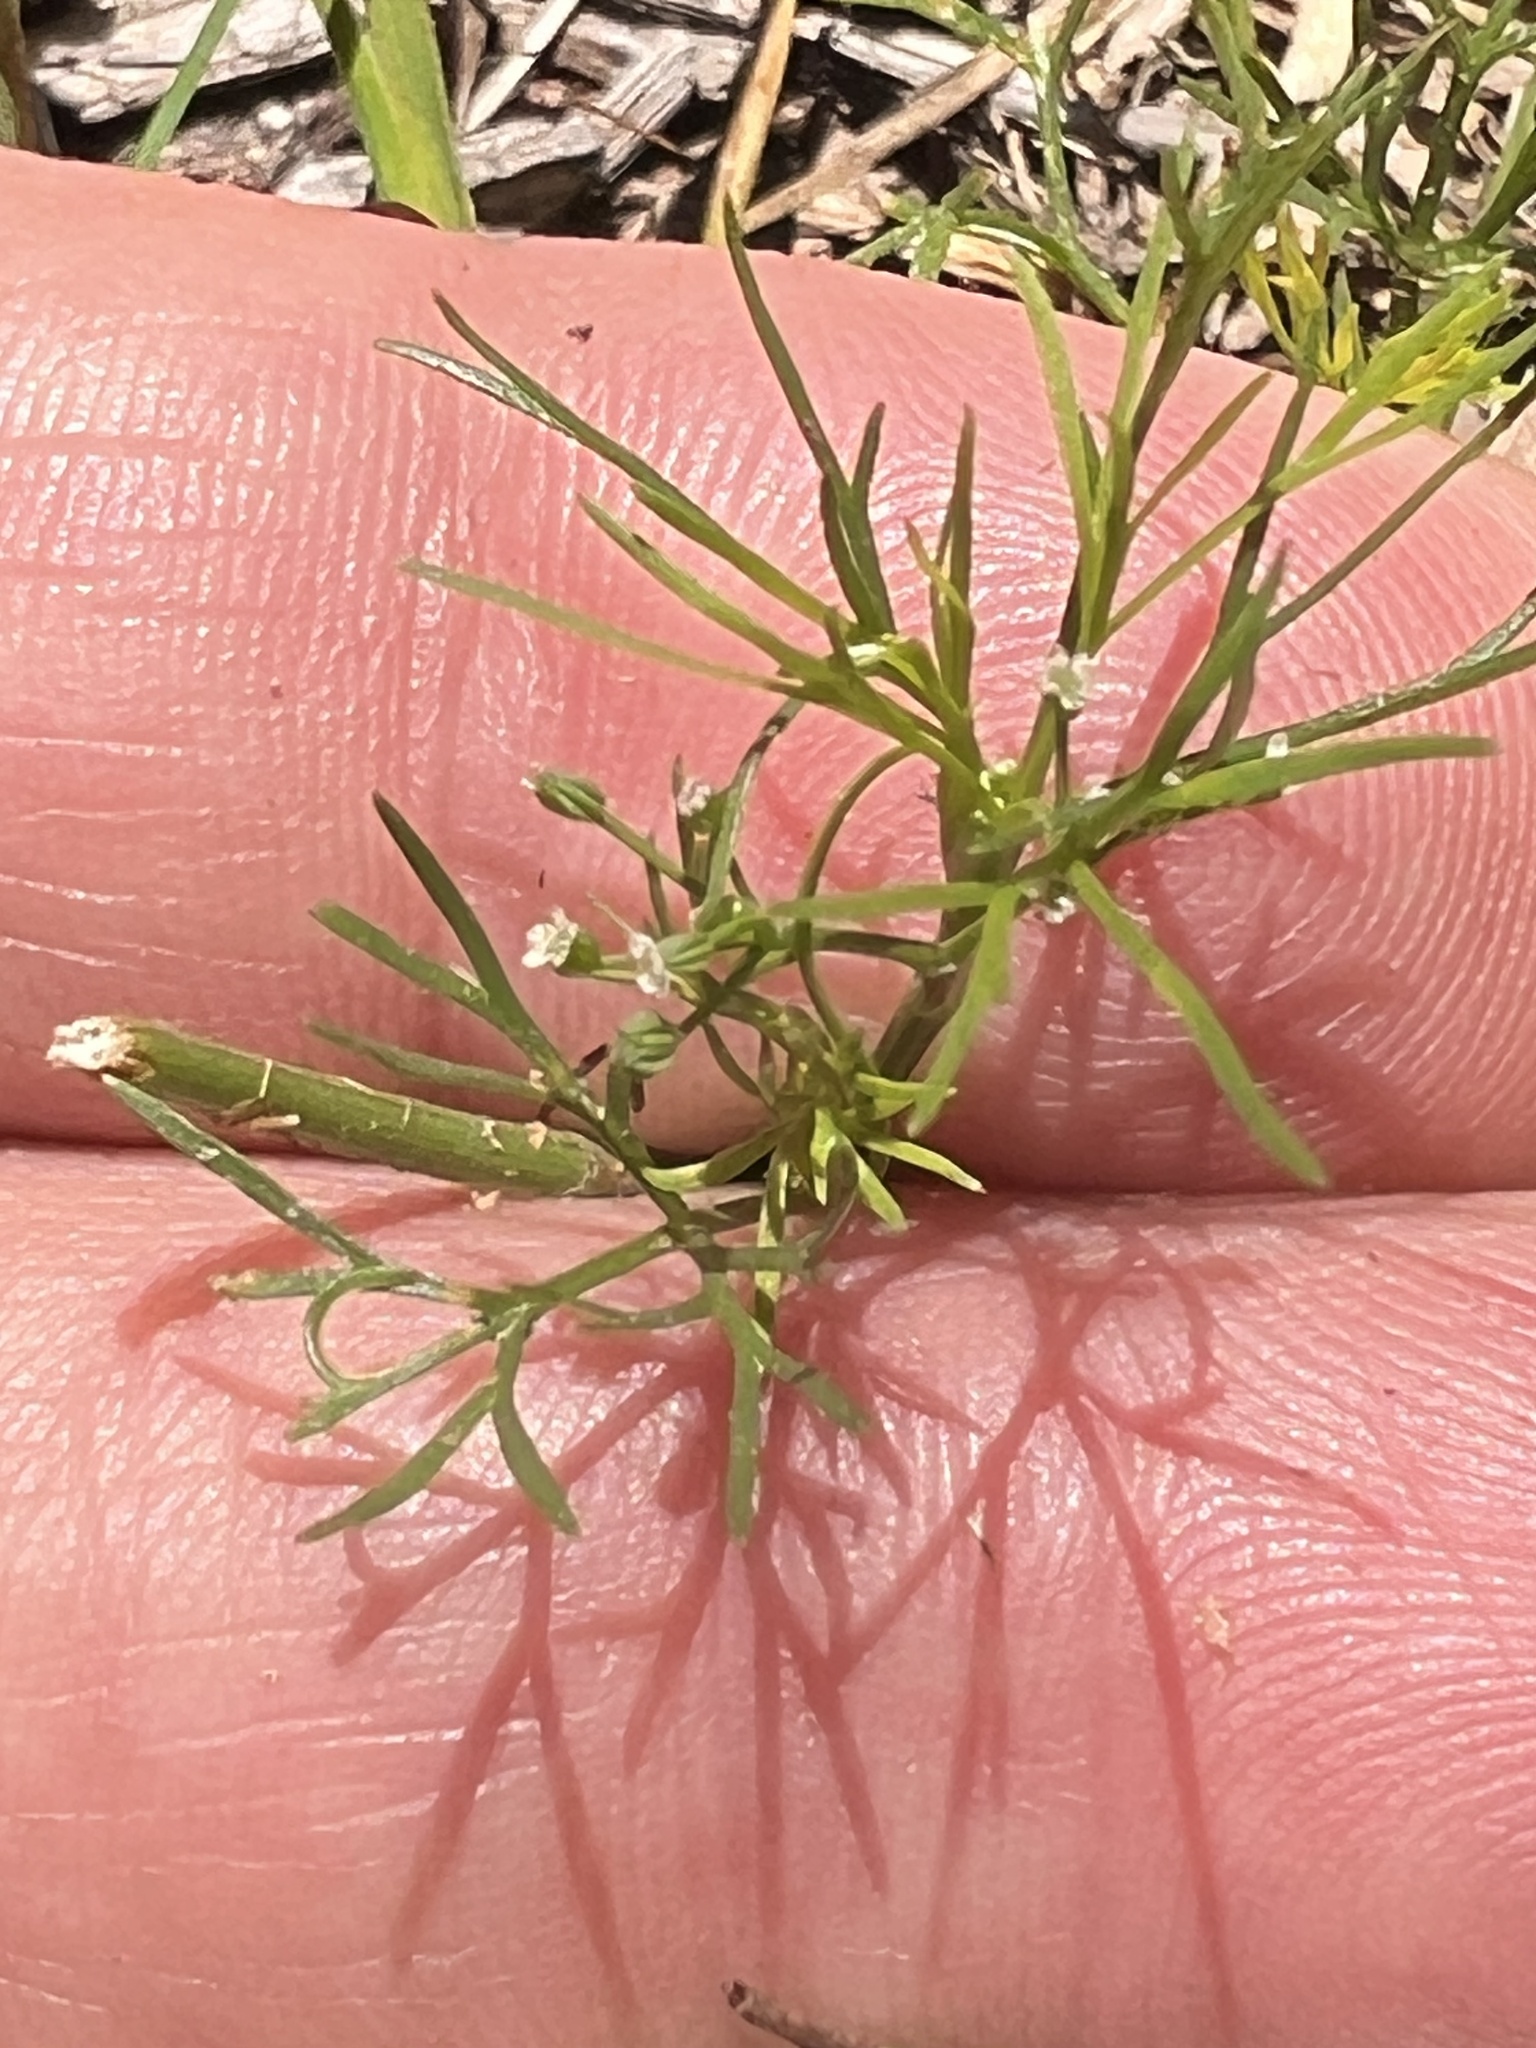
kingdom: Plantae
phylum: Tracheophyta
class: Magnoliopsida
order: Apiales
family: Apiaceae
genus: Cyclospermum
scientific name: Cyclospermum leptophyllum
